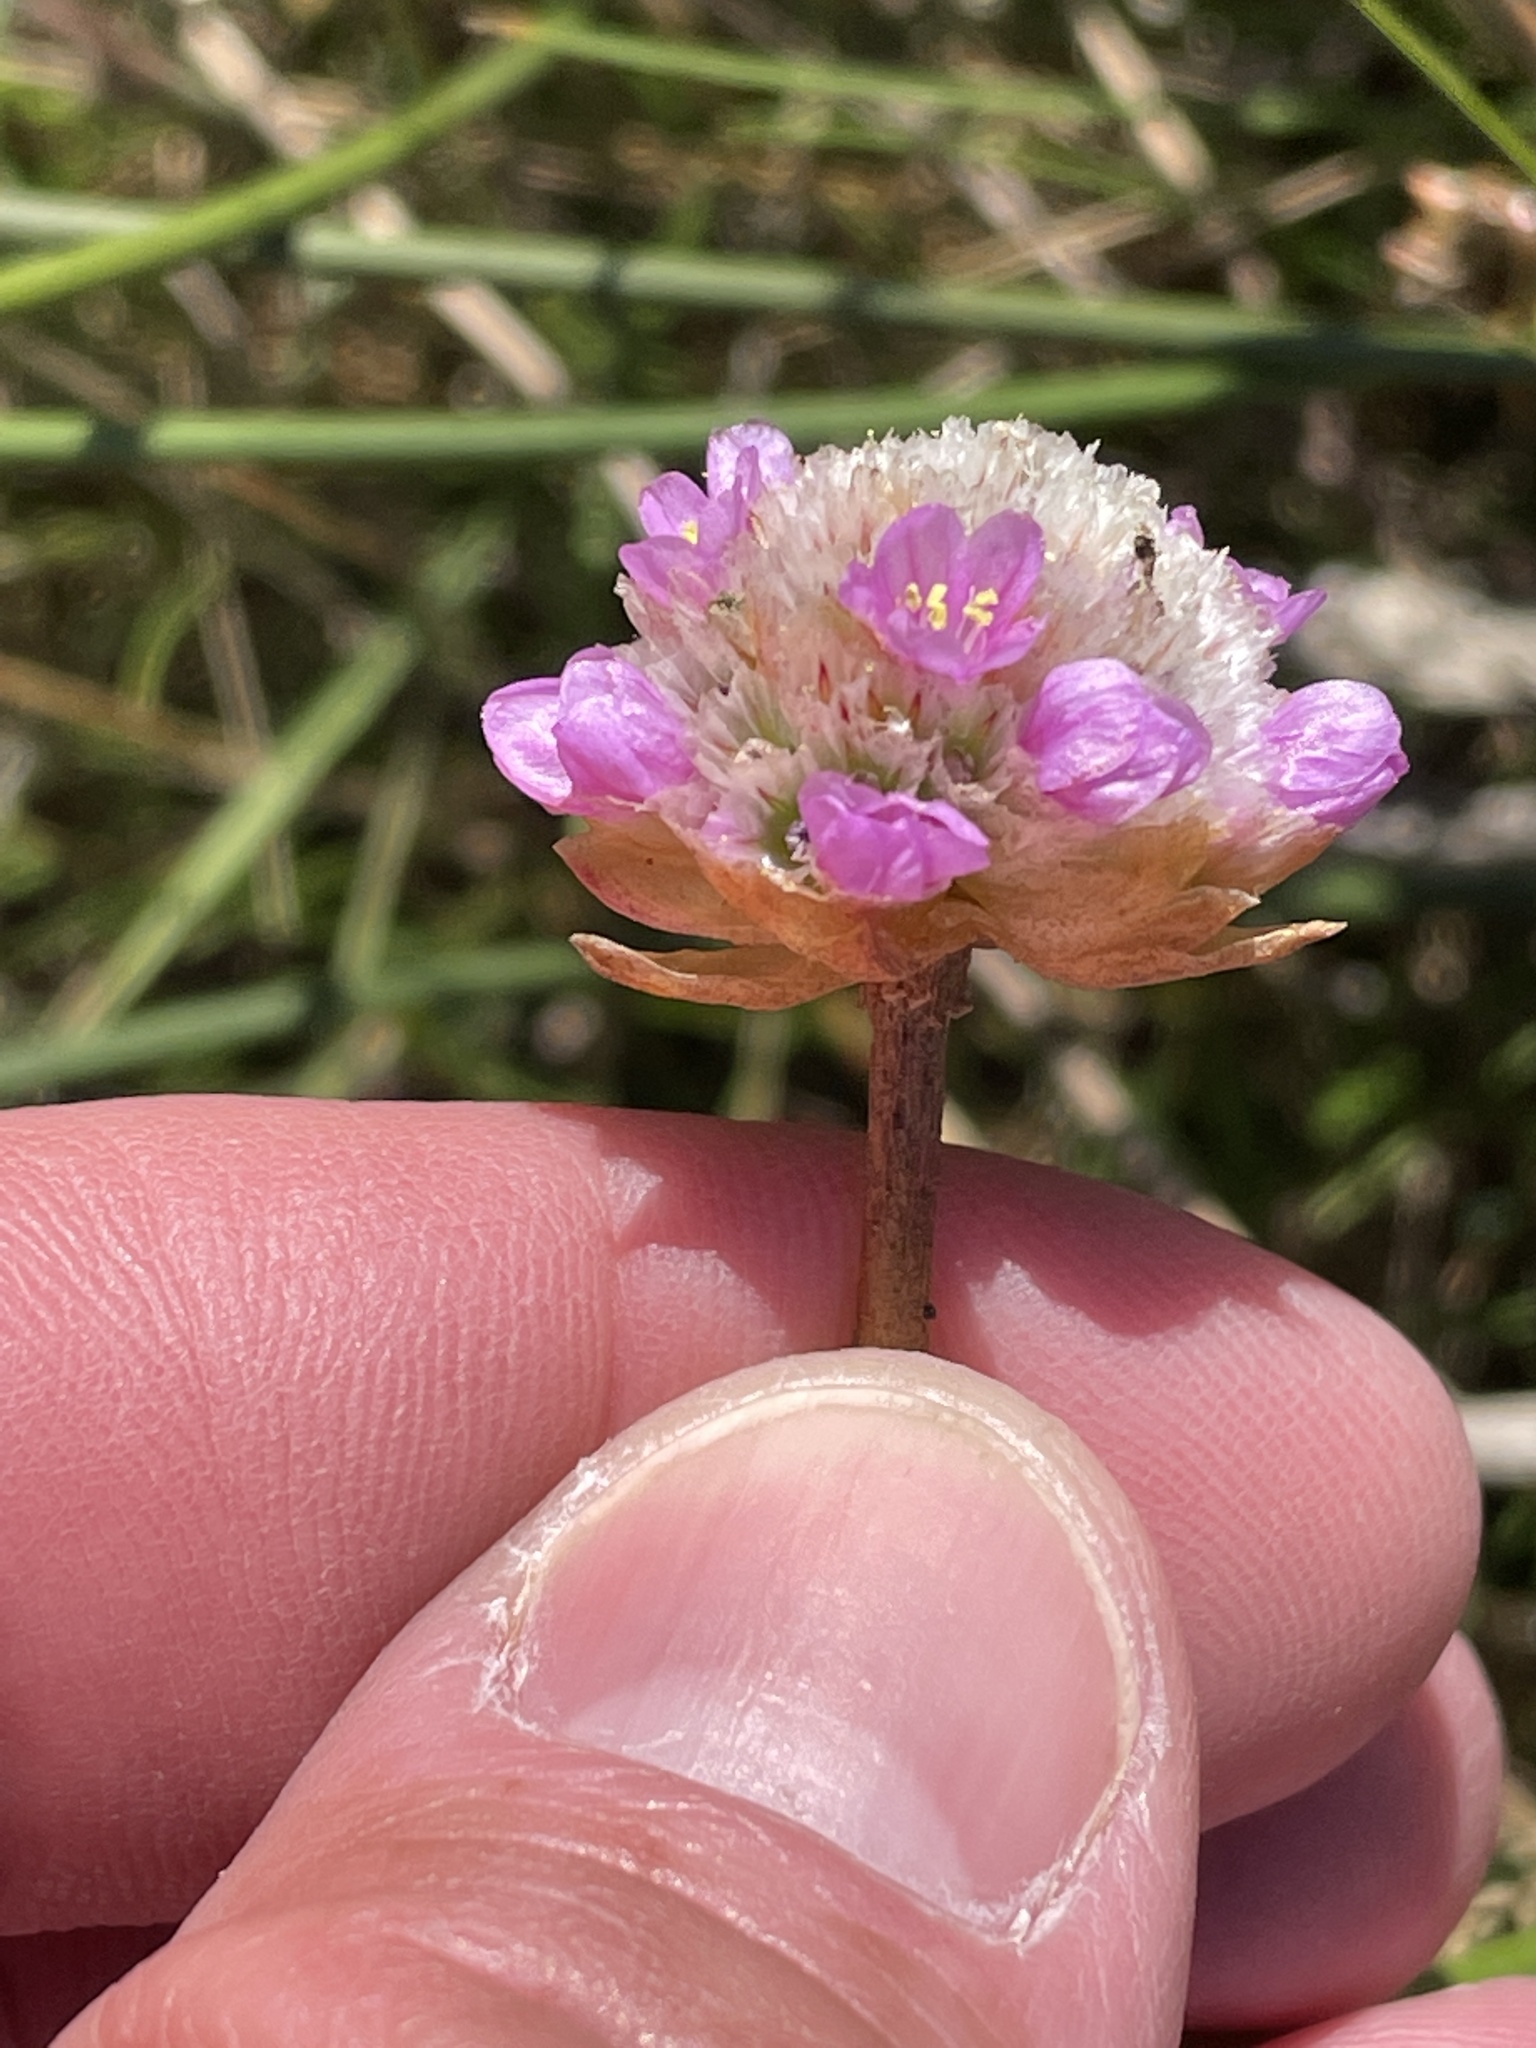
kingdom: Plantae
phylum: Tracheophyta
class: Magnoliopsida
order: Caryophyllales
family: Plumbaginaceae
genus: Armeria
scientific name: Armeria maritima
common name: Thrift
